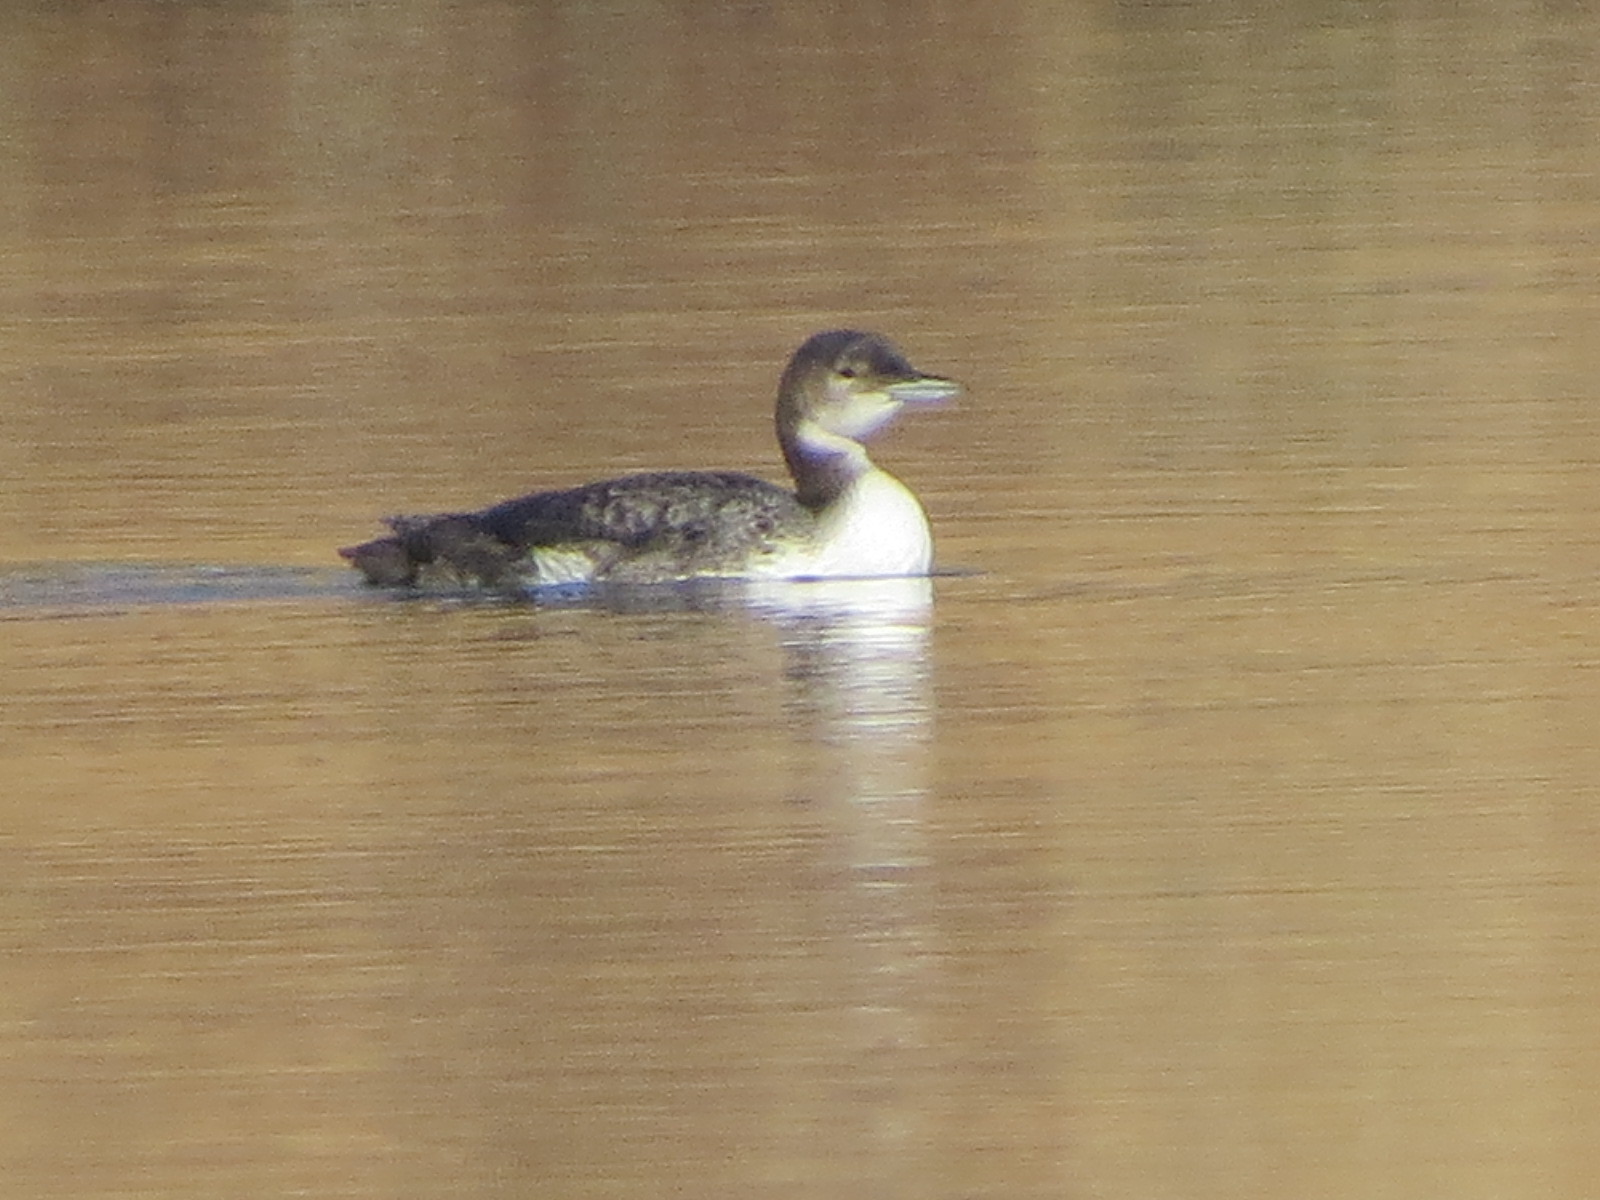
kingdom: Animalia
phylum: Chordata
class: Aves
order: Gaviiformes
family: Gaviidae
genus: Gavia
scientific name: Gavia pacifica
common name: Pacific loon
